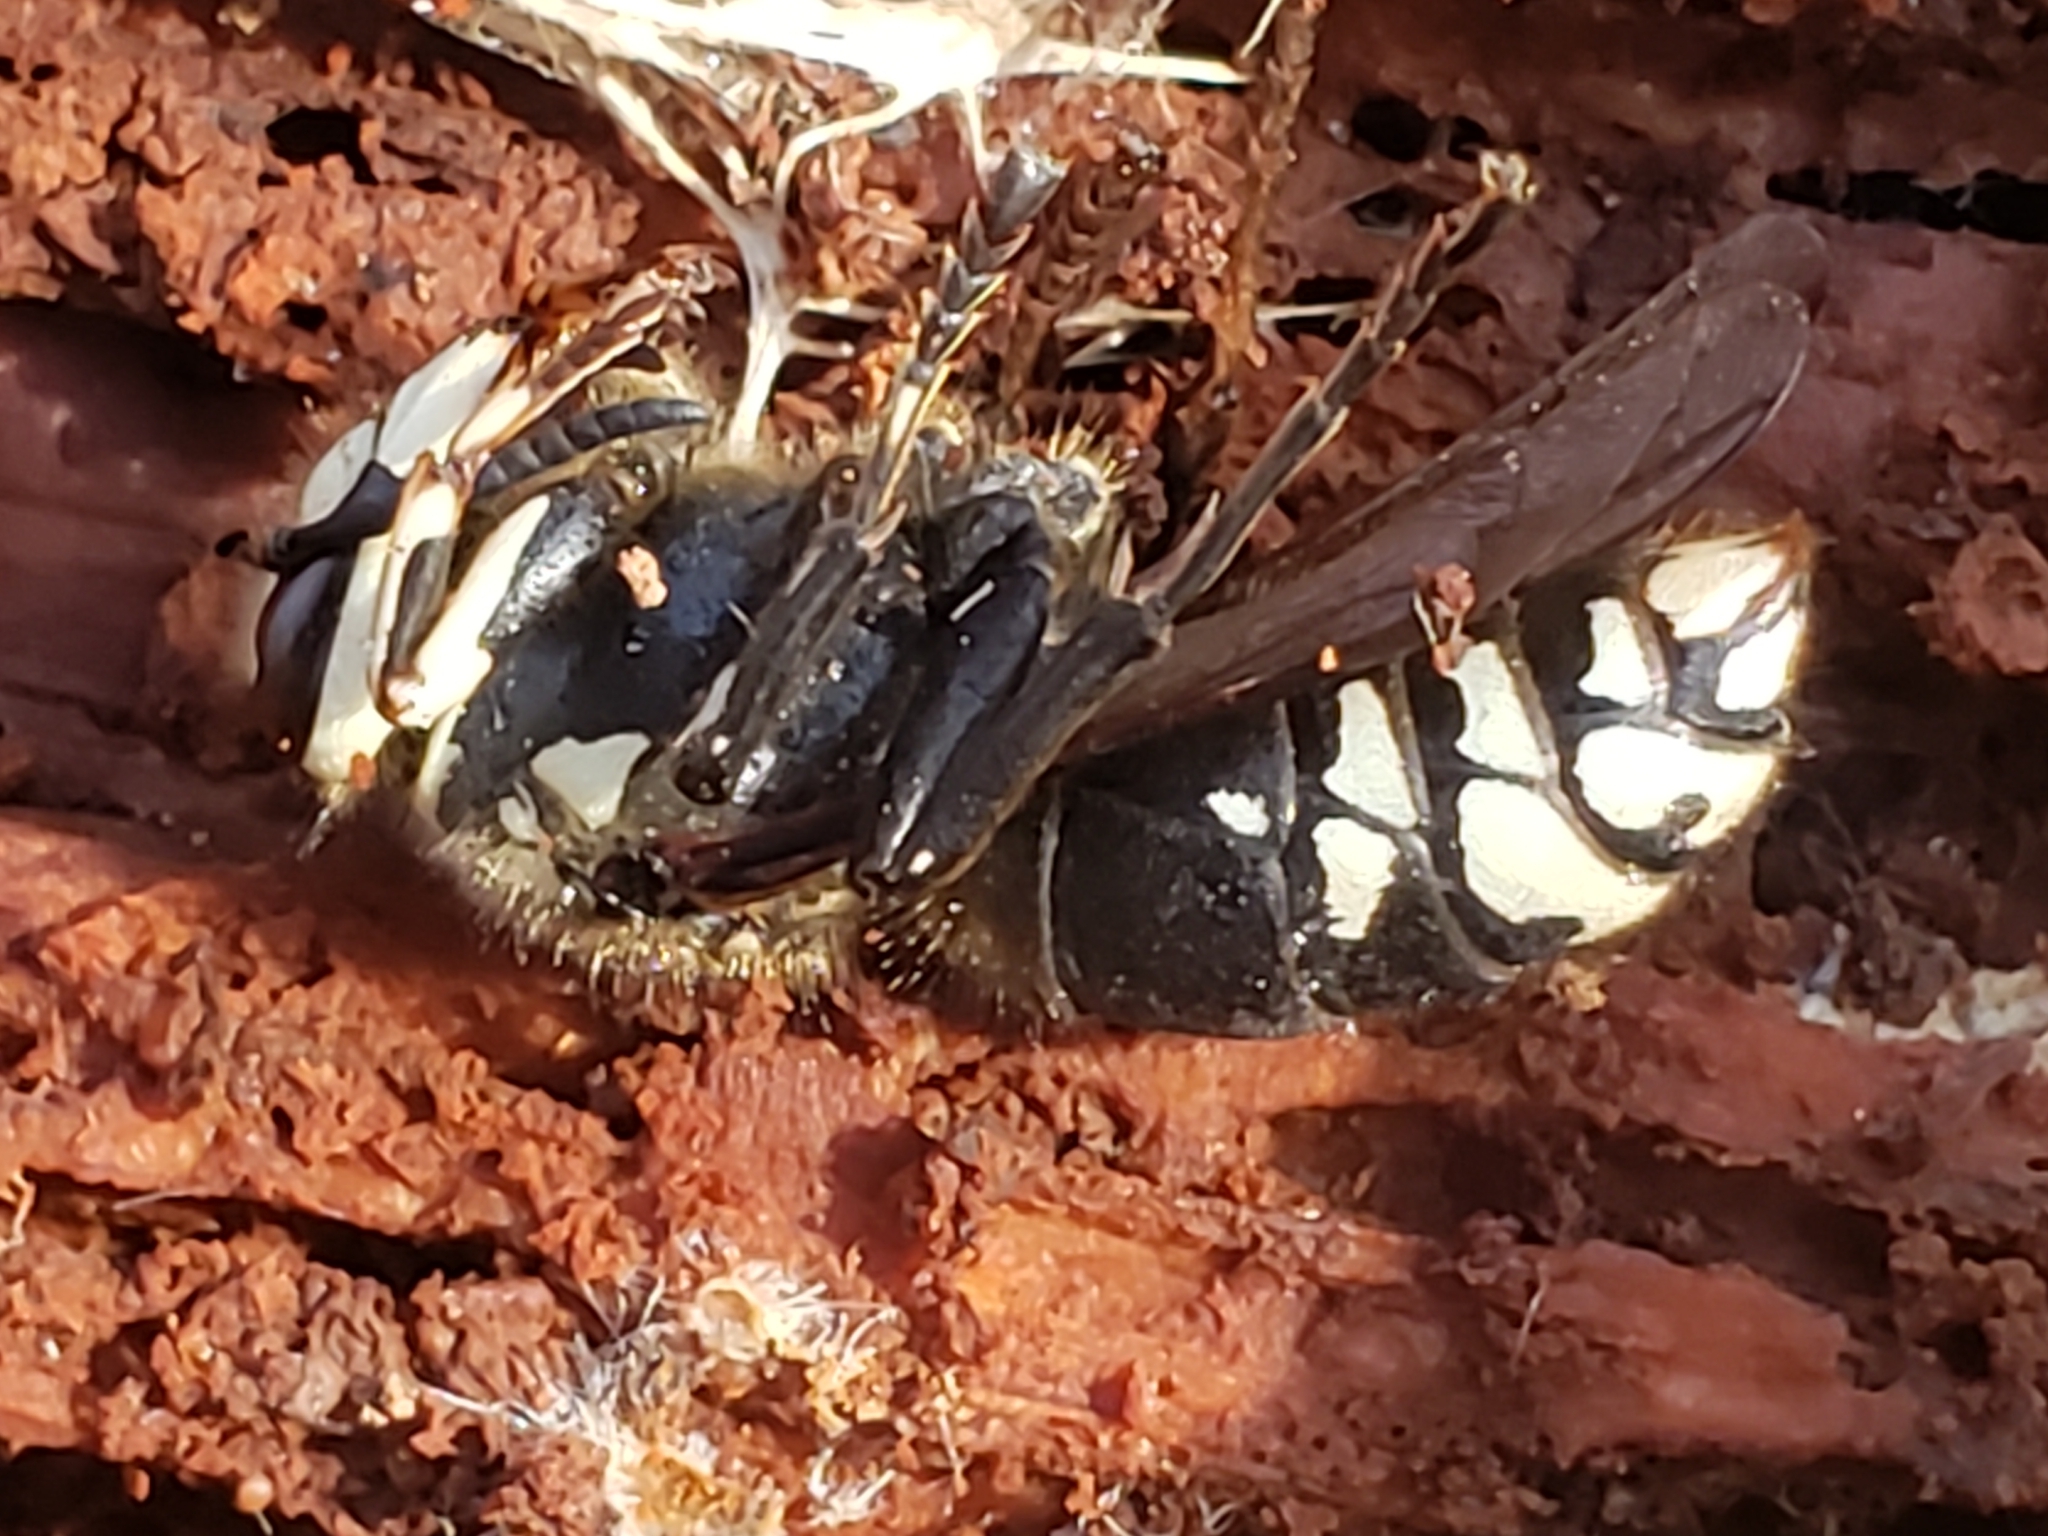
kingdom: Animalia
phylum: Arthropoda
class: Insecta
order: Hymenoptera
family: Vespidae
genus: Dolichovespula
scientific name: Dolichovespula maculata
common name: Bald-faced hornet
